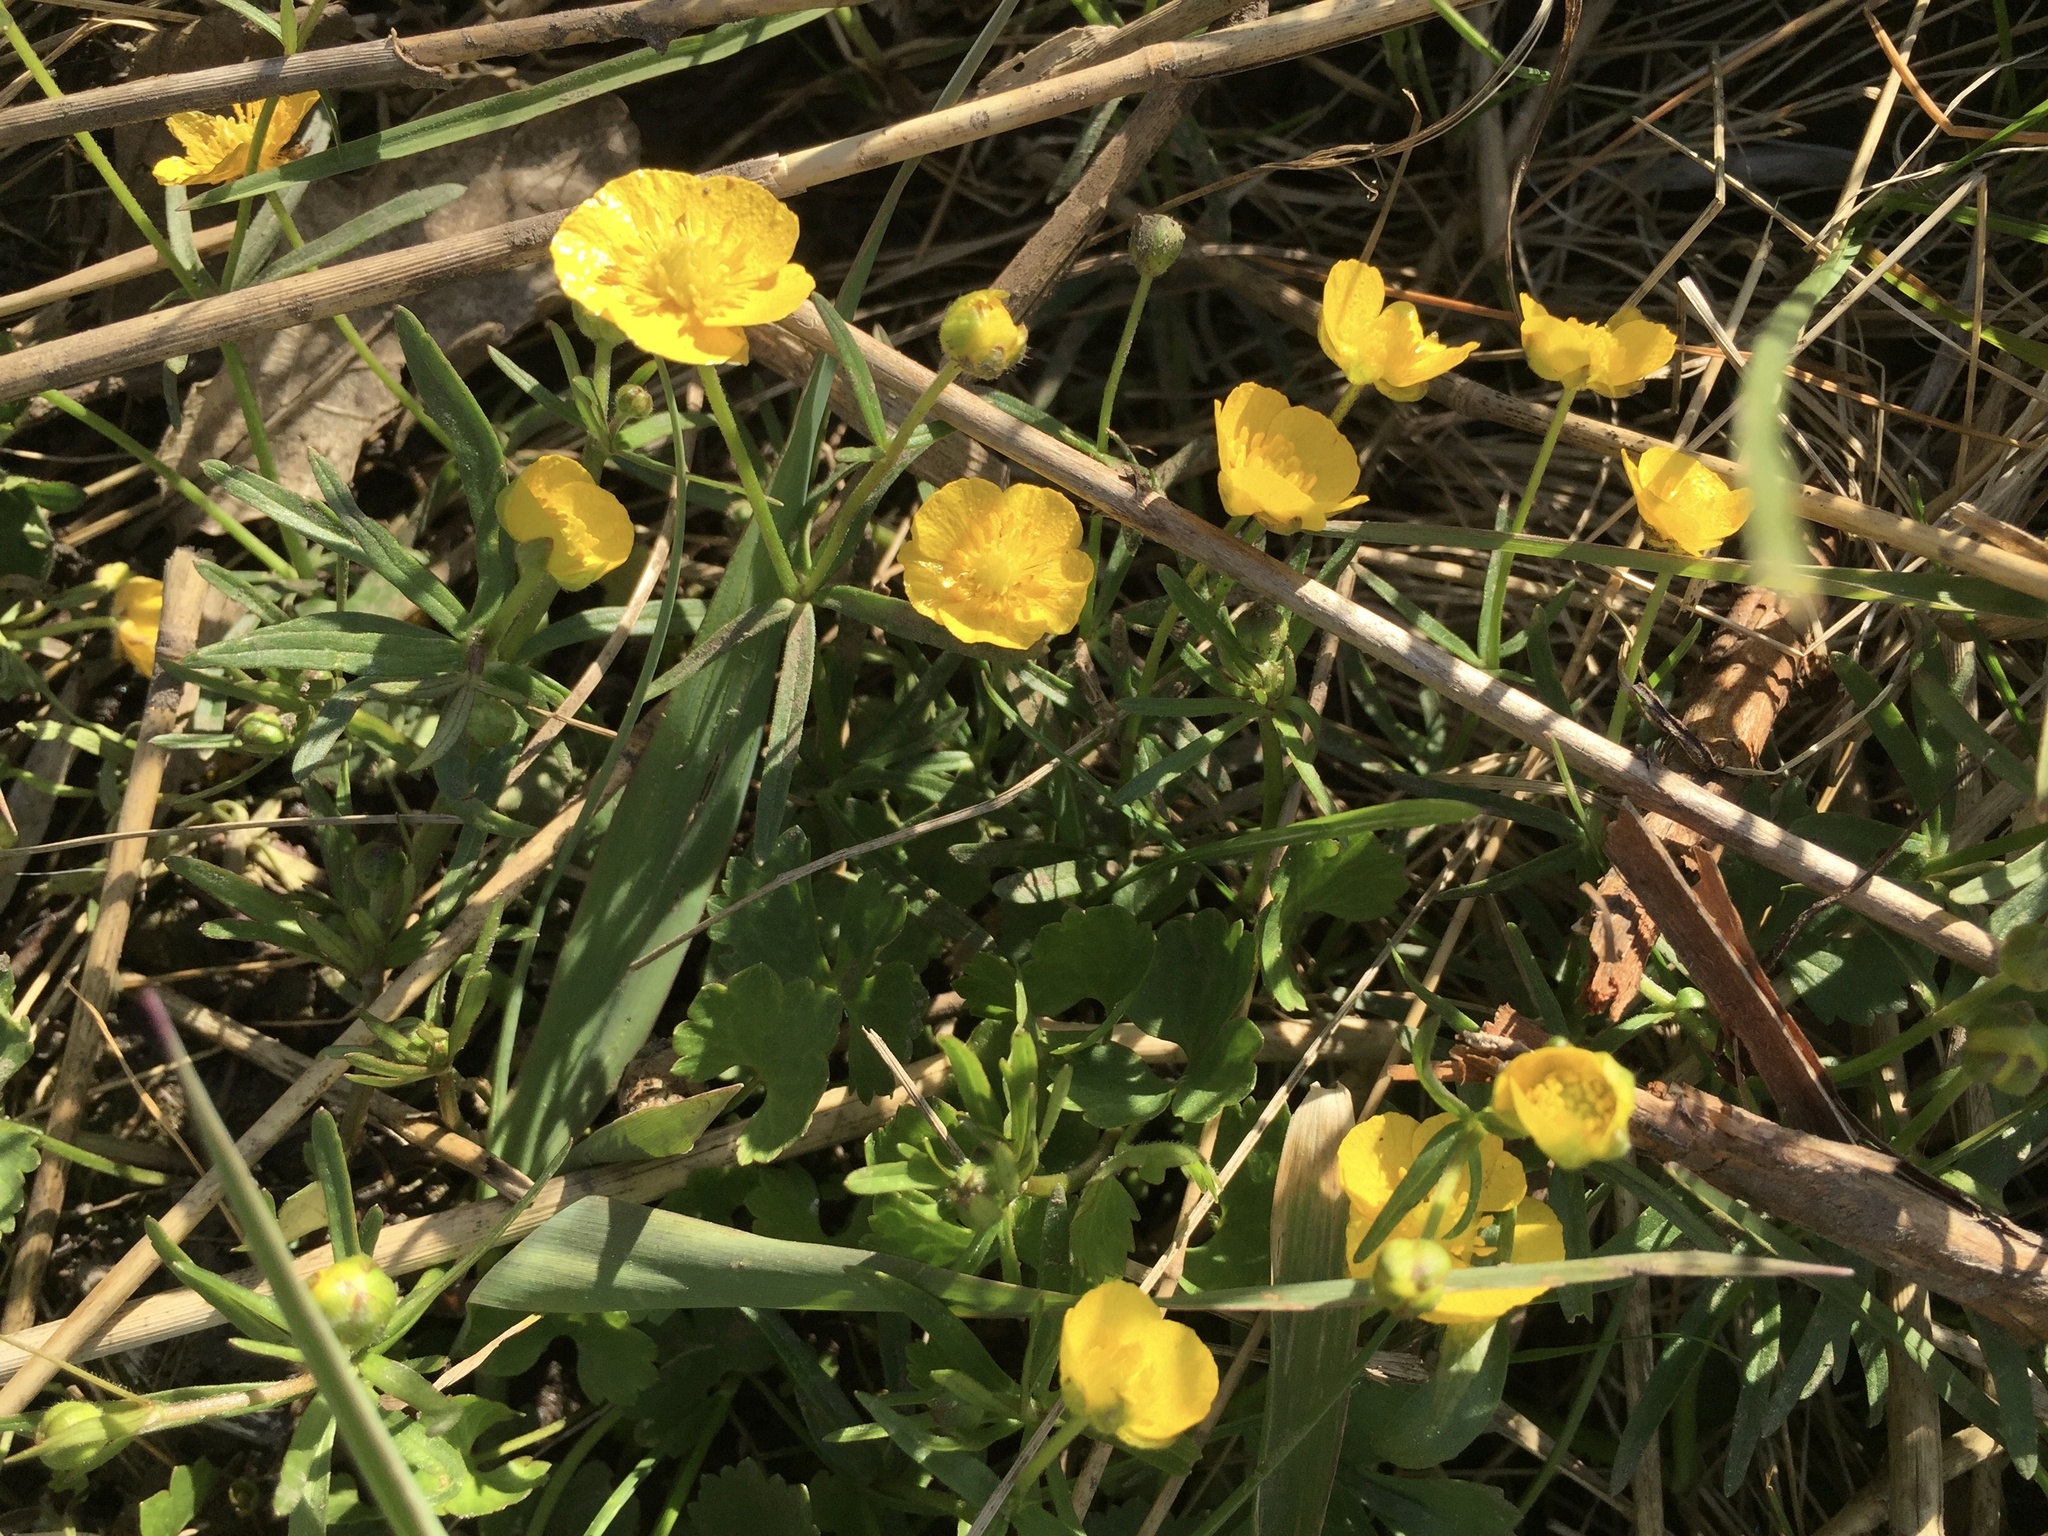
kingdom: Plantae
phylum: Tracheophyta
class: Magnoliopsida
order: Ranunculales
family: Ranunculaceae
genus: Ranunculus
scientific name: Ranunculus auricomus
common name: Goldilocks buttercup
